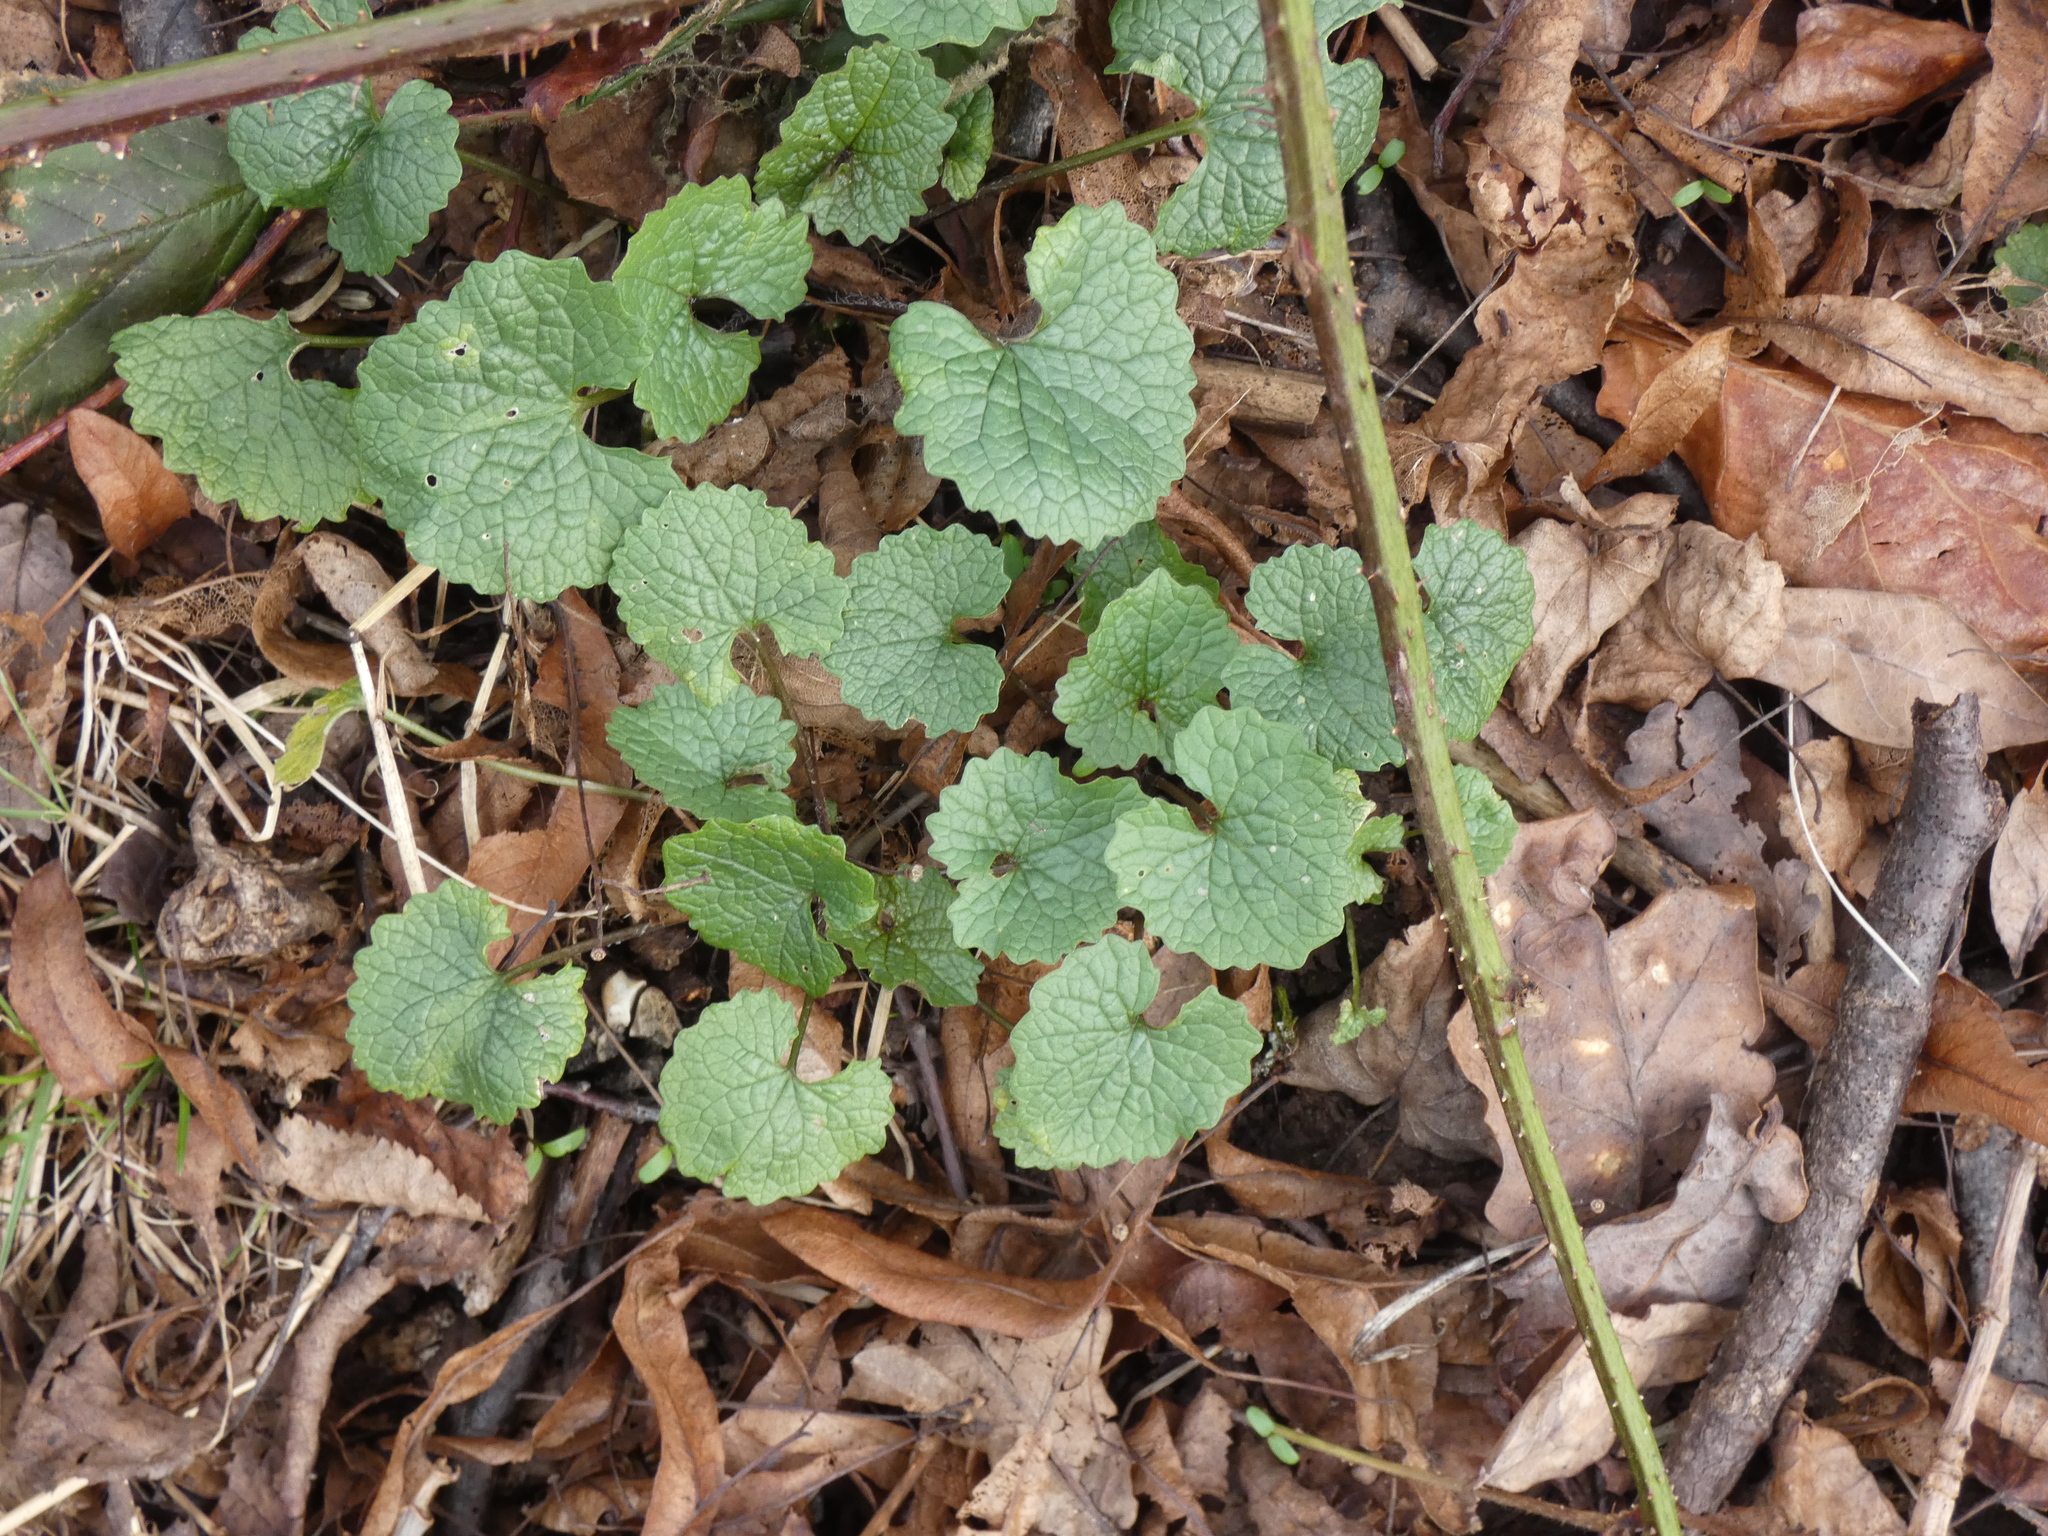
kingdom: Plantae
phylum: Tracheophyta
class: Magnoliopsida
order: Brassicales
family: Brassicaceae
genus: Alliaria
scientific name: Alliaria petiolata
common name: Garlic mustard
